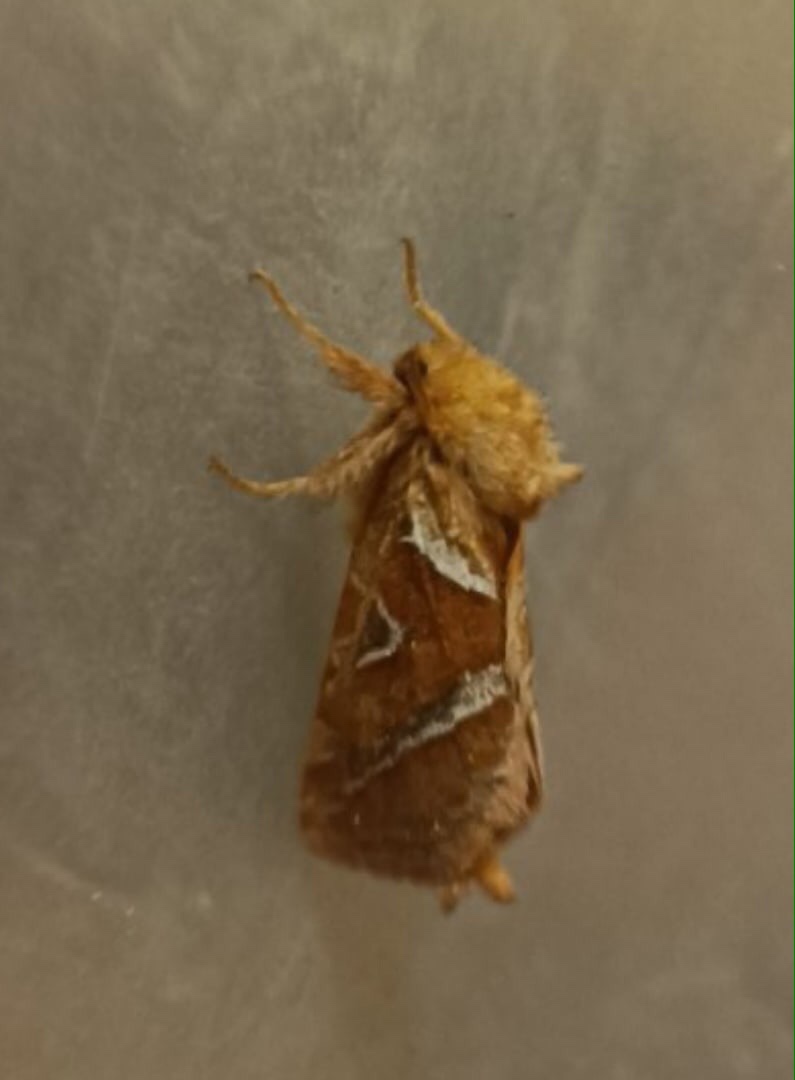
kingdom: Animalia
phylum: Arthropoda
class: Insecta
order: Lepidoptera
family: Hepialidae
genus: Triodia
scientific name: Triodia sylvina
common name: Orange swift
